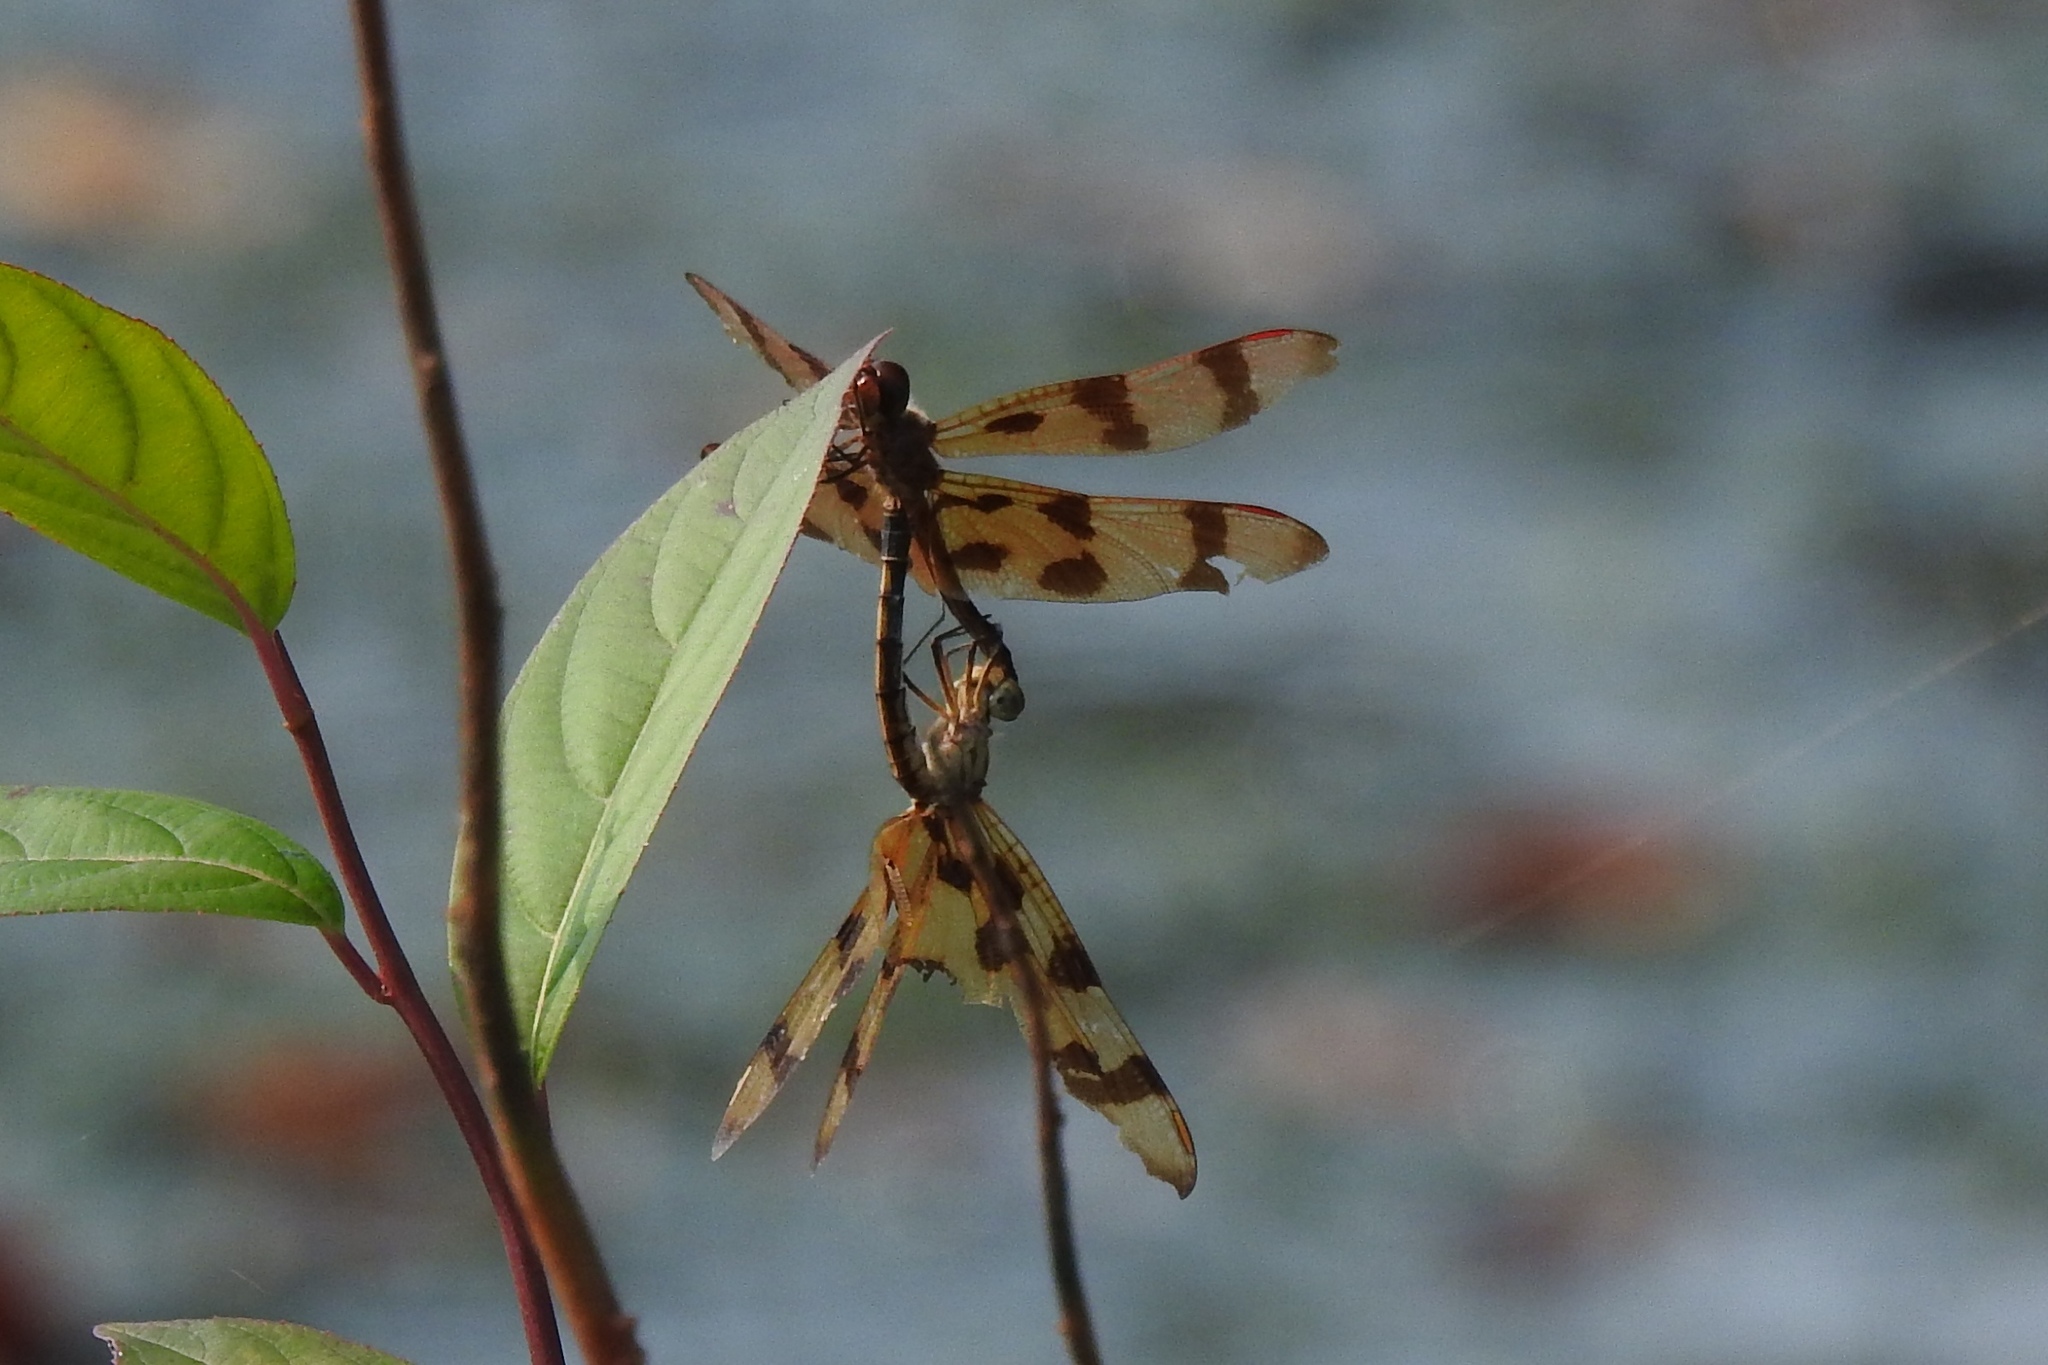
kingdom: Animalia
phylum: Arthropoda
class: Insecta
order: Odonata
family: Libellulidae
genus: Celithemis
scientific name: Celithemis eponina
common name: Halloween pennant
